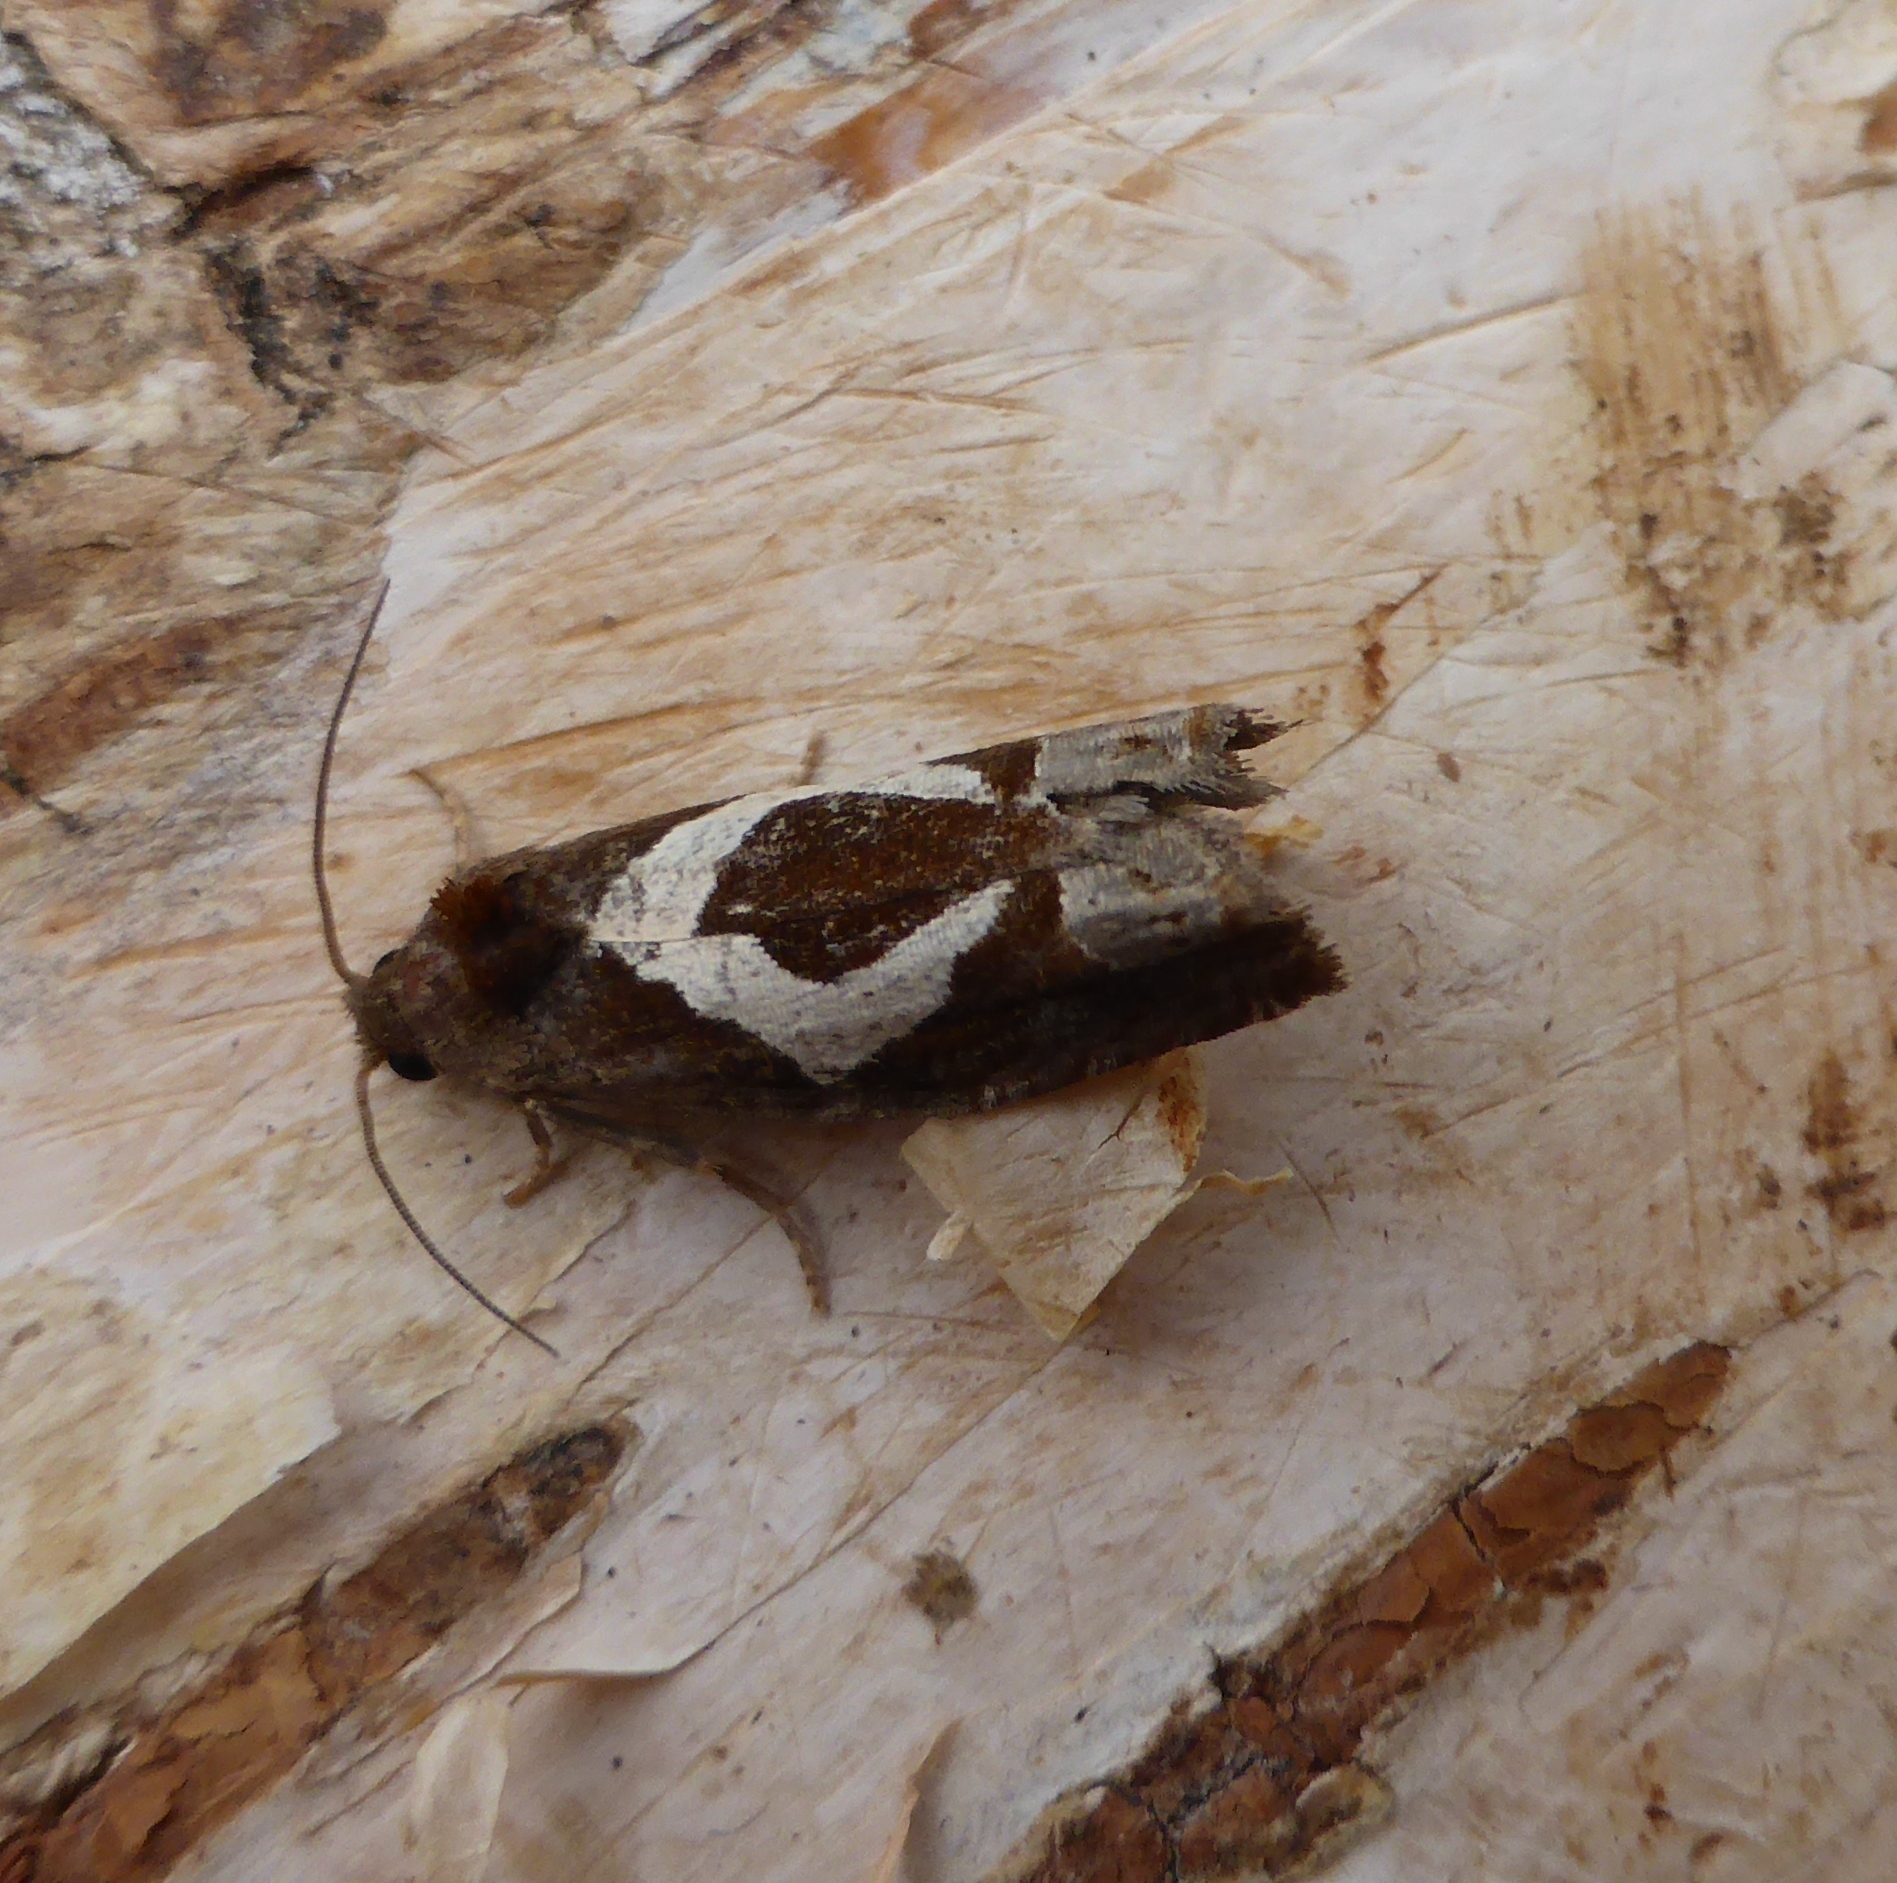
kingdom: Animalia
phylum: Arthropoda
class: Insecta
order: Lepidoptera
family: Tortricidae
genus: Epiblema
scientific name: Epiblema foenella
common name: White-foot bell
